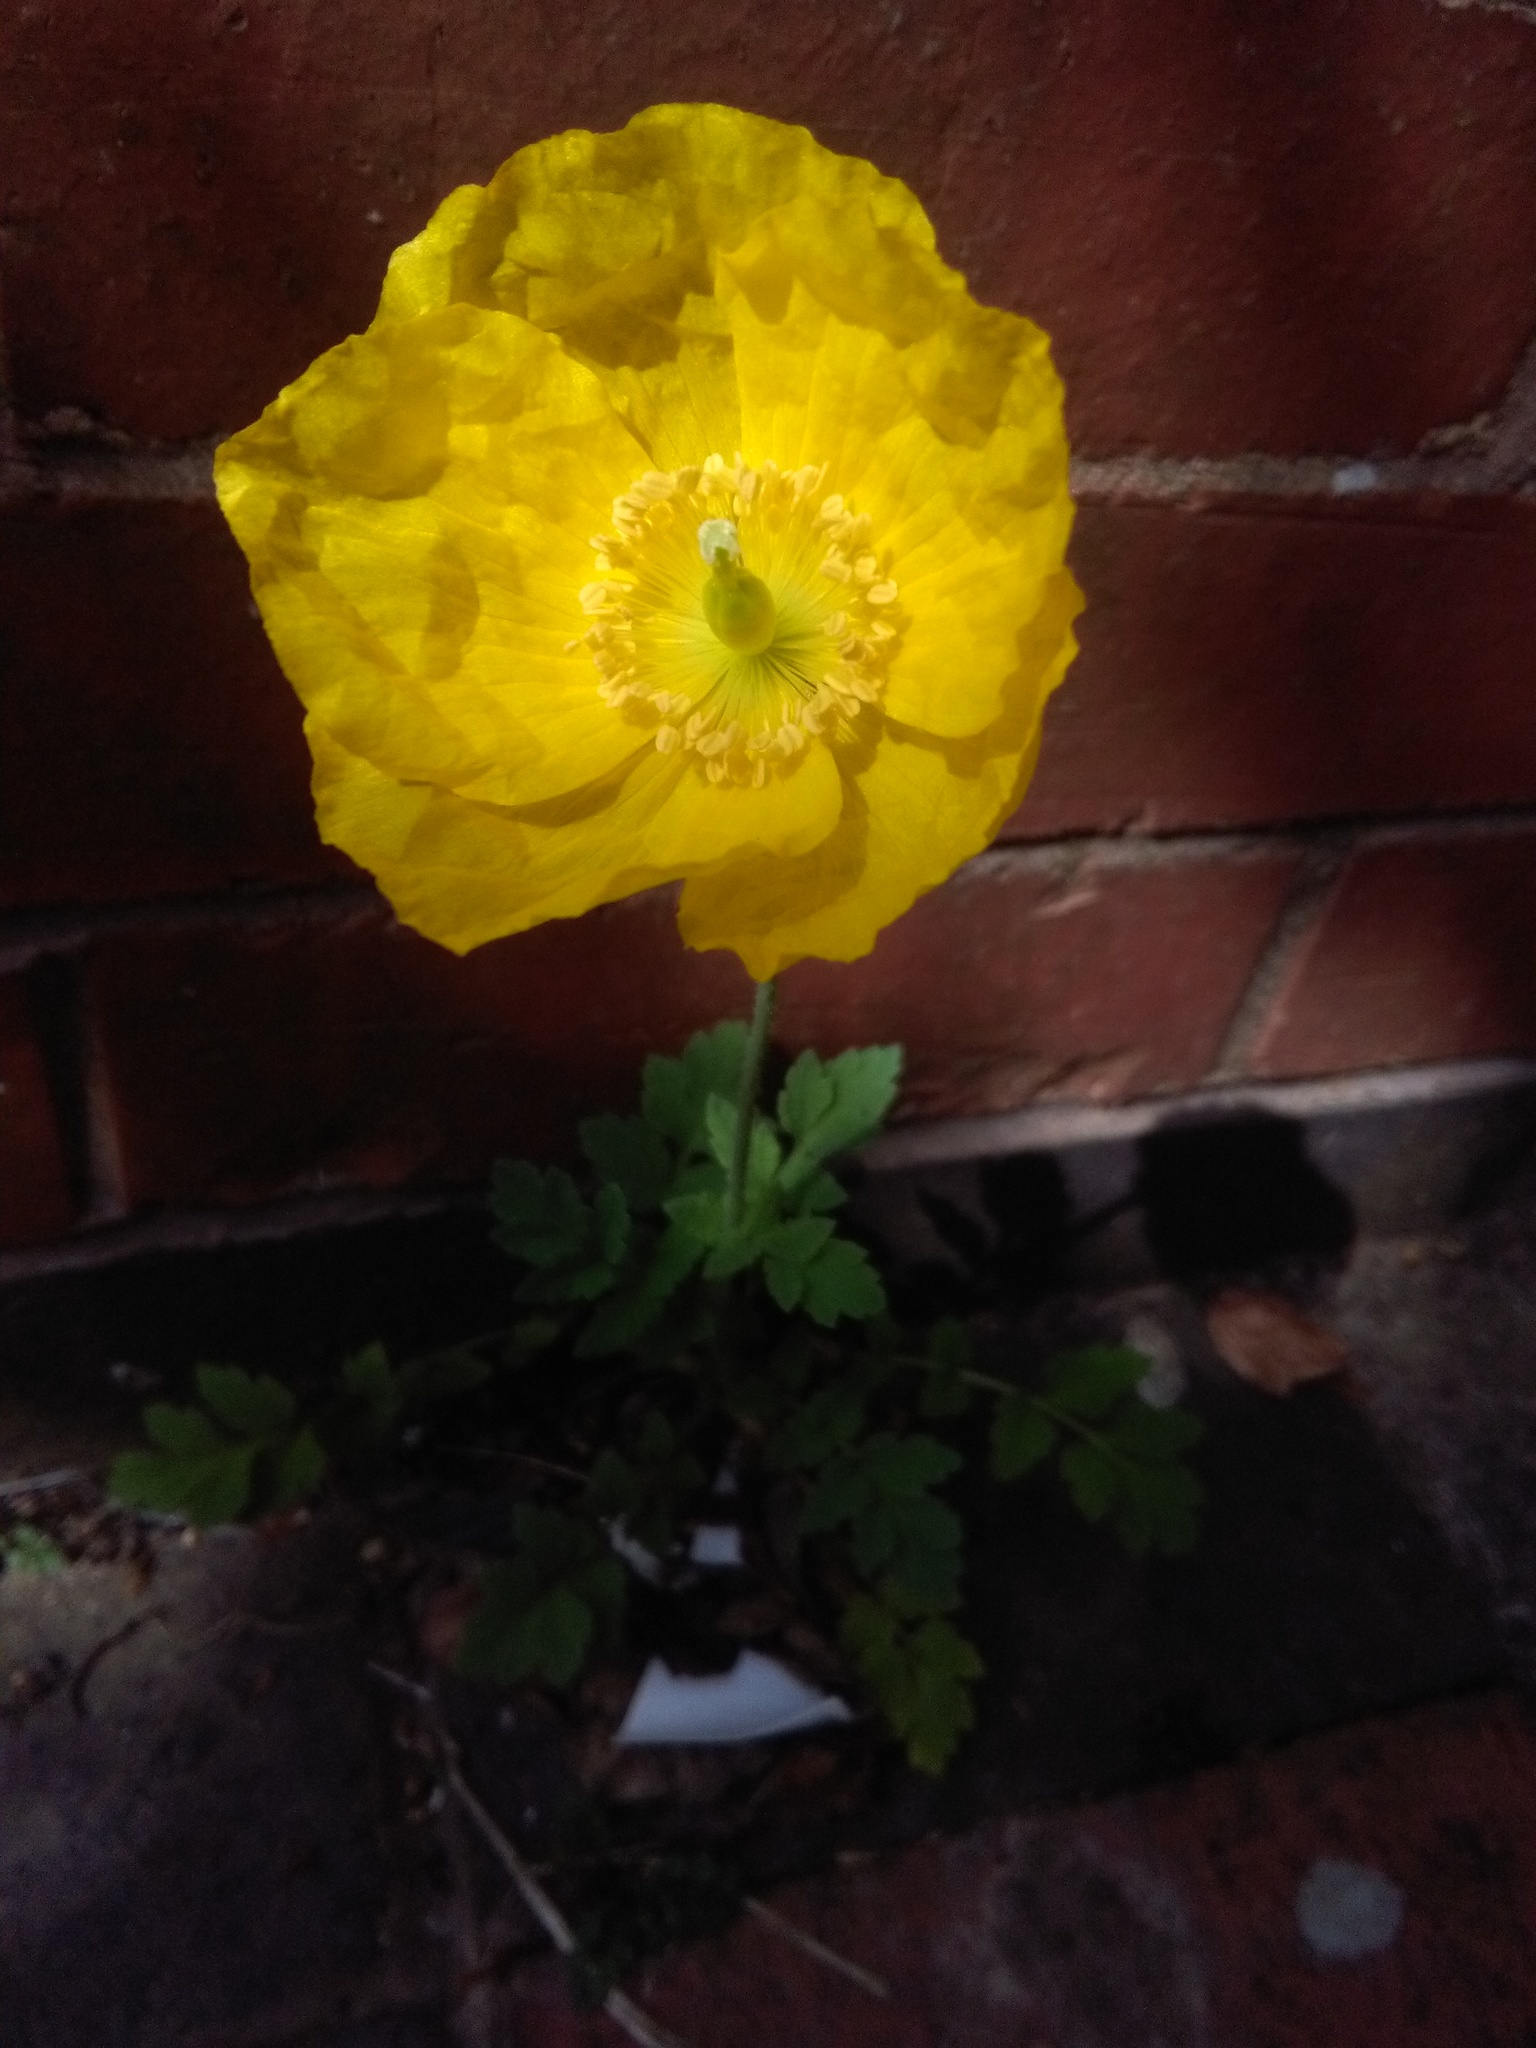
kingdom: Plantae
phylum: Tracheophyta
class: Magnoliopsida
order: Ranunculales
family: Papaveraceae
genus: Papaver
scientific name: Papaver cambricum
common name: Poppy
